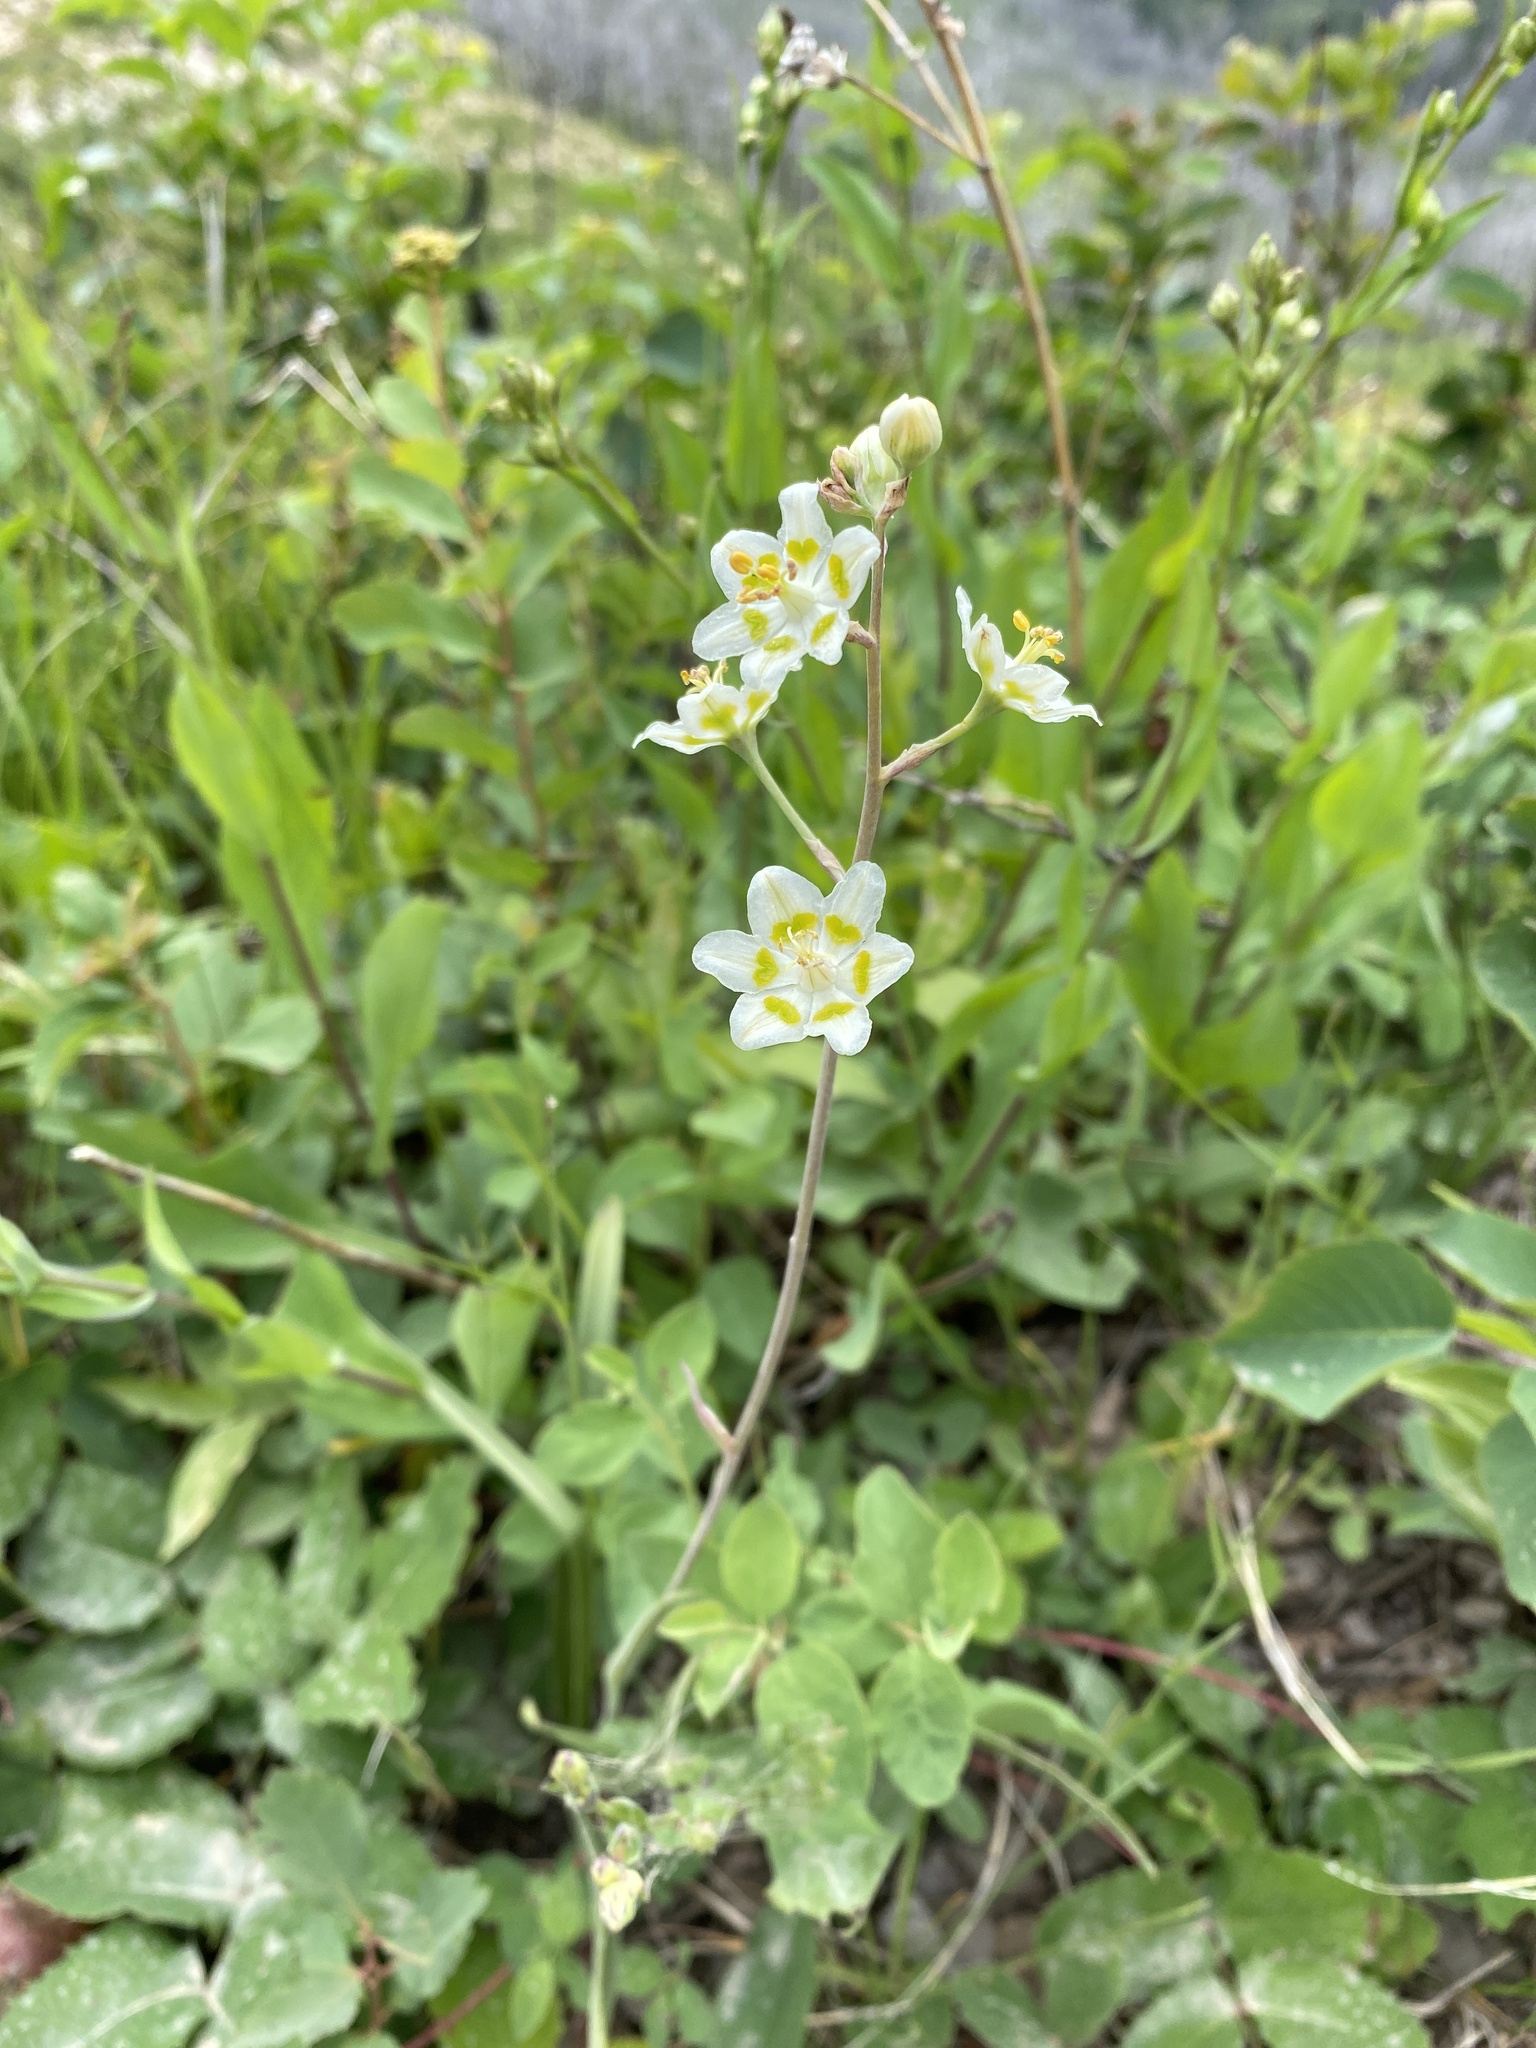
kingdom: Plantae
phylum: Tracheophyta
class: Liliopsida
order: Liliales
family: Melanthiaceae
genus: Anticlea
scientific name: Anticlea elegans
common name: Mountain death camas
